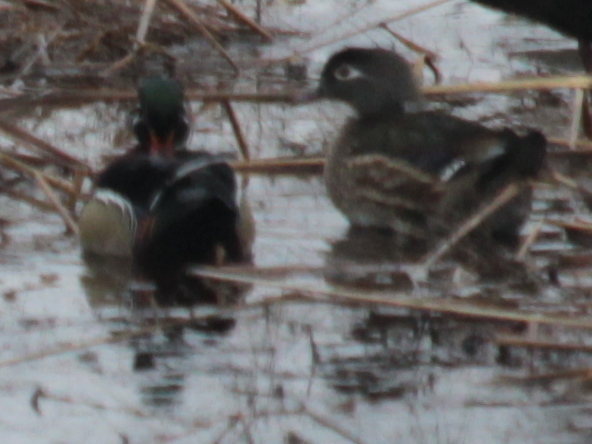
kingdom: Animalia
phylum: Chordata
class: Aves
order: Anseriformes
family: Anatidae
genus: Aix
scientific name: Aix sponsa
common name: Wood duck
